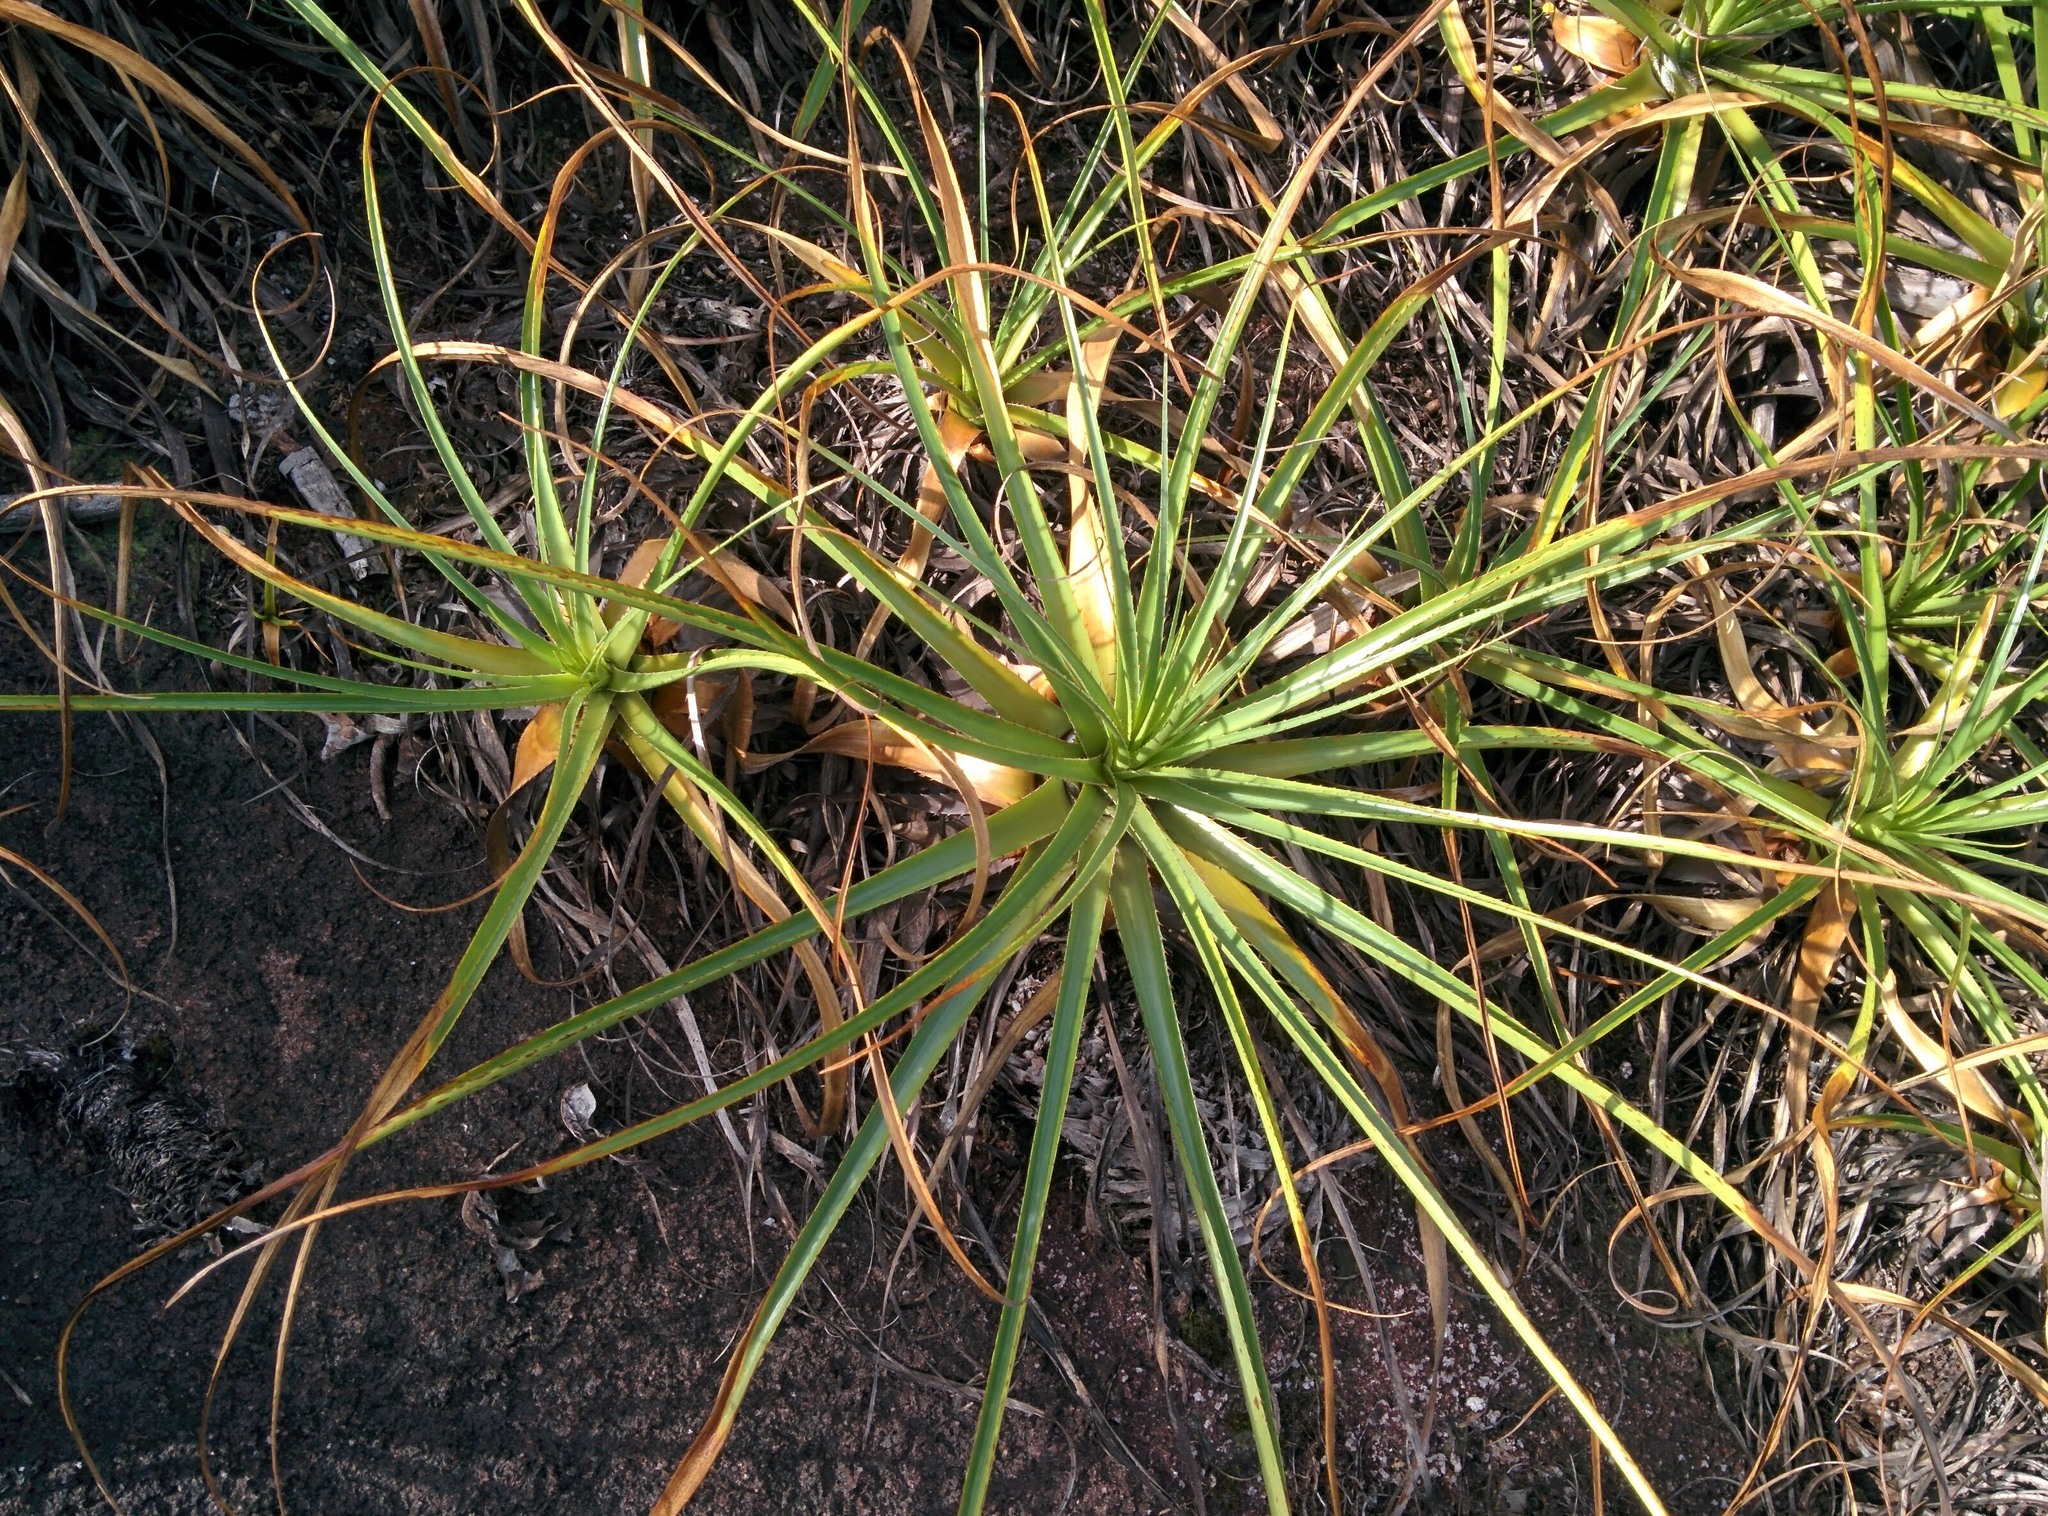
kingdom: Plantae
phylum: Tracheophyta
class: Liliopsida
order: Poales
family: Bromeliaceae
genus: Pitcairnia
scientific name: Pitcairnia cremersii
